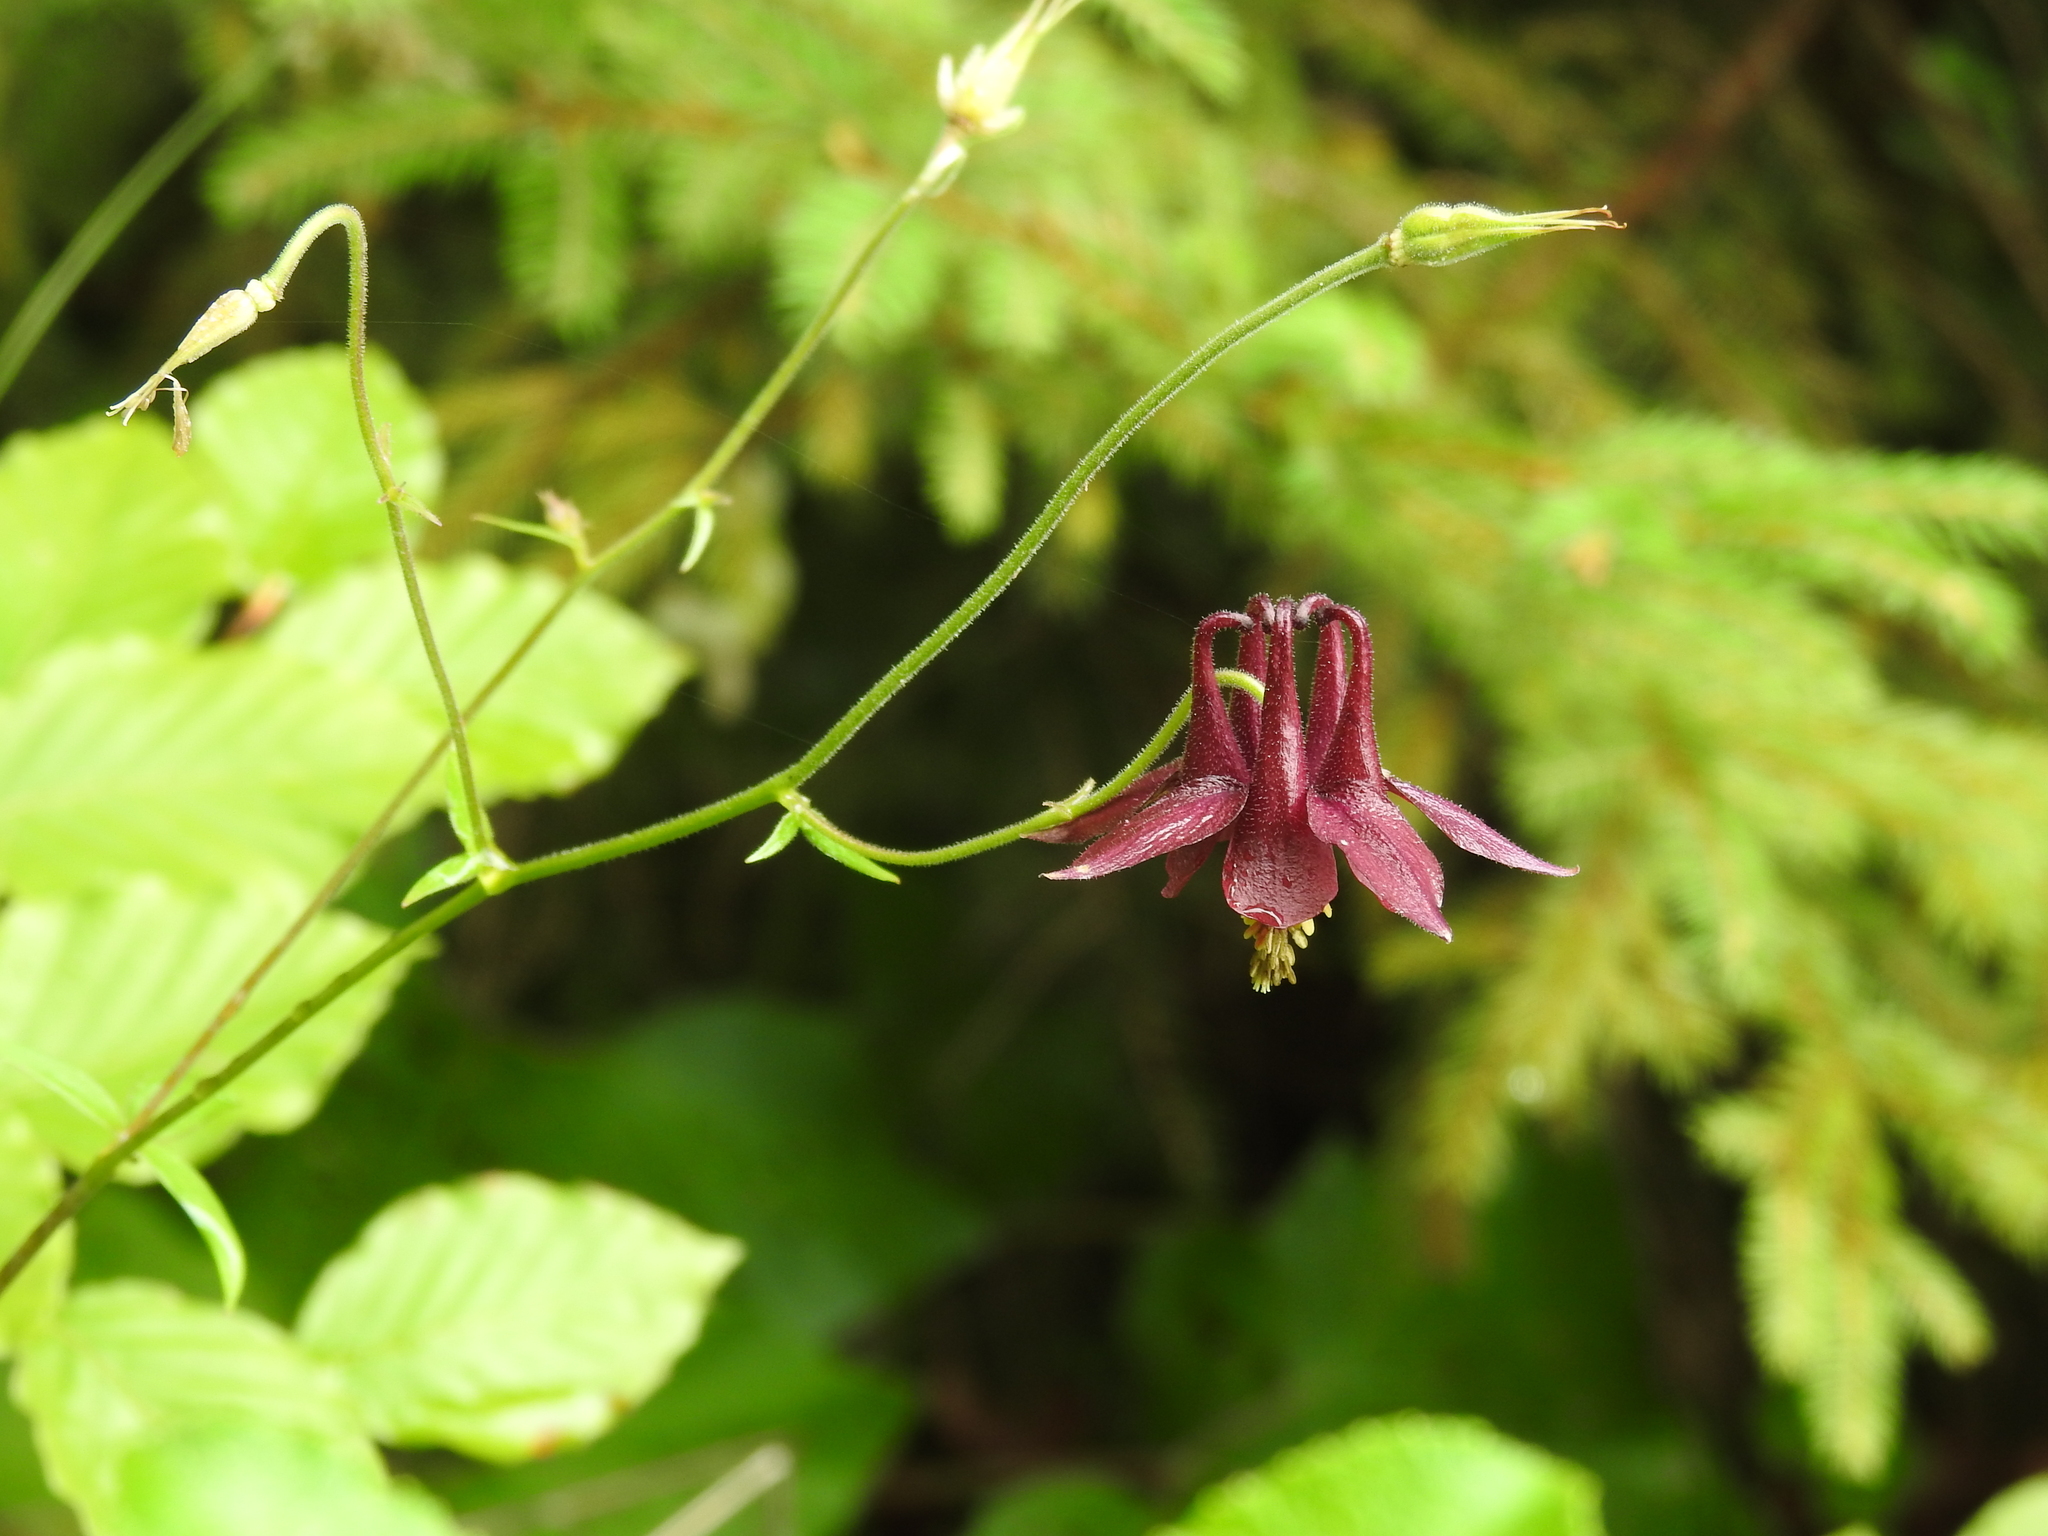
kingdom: Plantae
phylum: Tracheophyta
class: Magnoliopsida
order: Ranunculales
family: Ranunculaceae
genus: Aquilegia
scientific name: Aquilegia atrata
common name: Dark columbine
